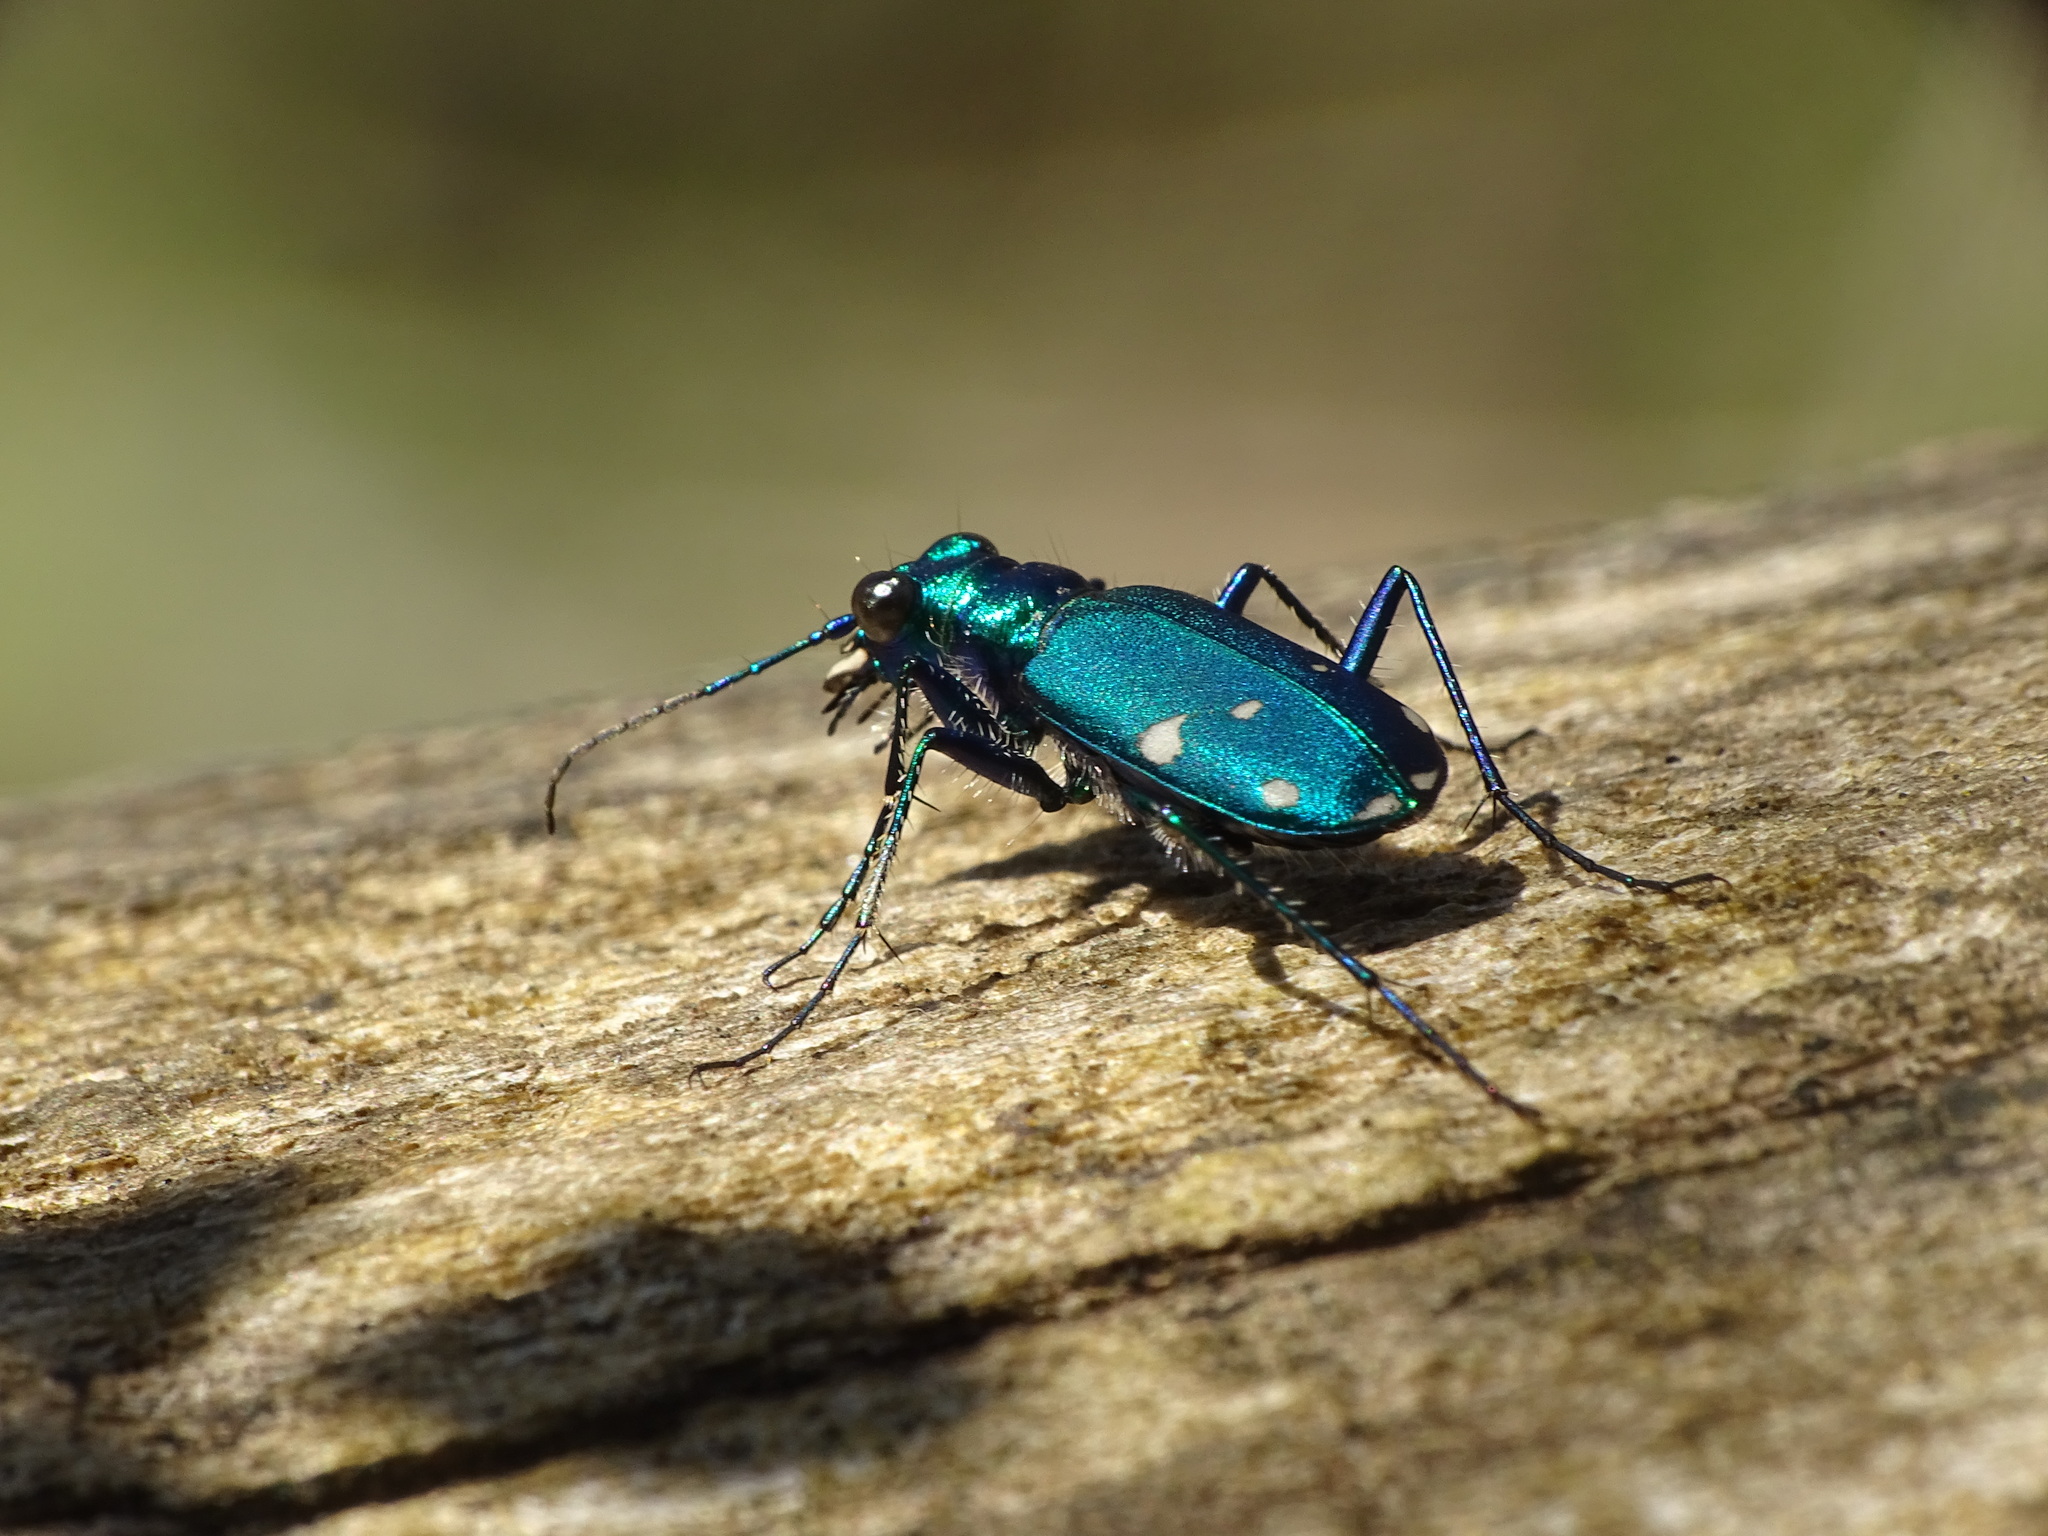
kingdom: Animalia
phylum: Arthropoda
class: Insecta
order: Coleoptera
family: Carabidae
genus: Cicindela
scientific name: Cicindela sexguttata
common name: Six-spotted tiger beetle
